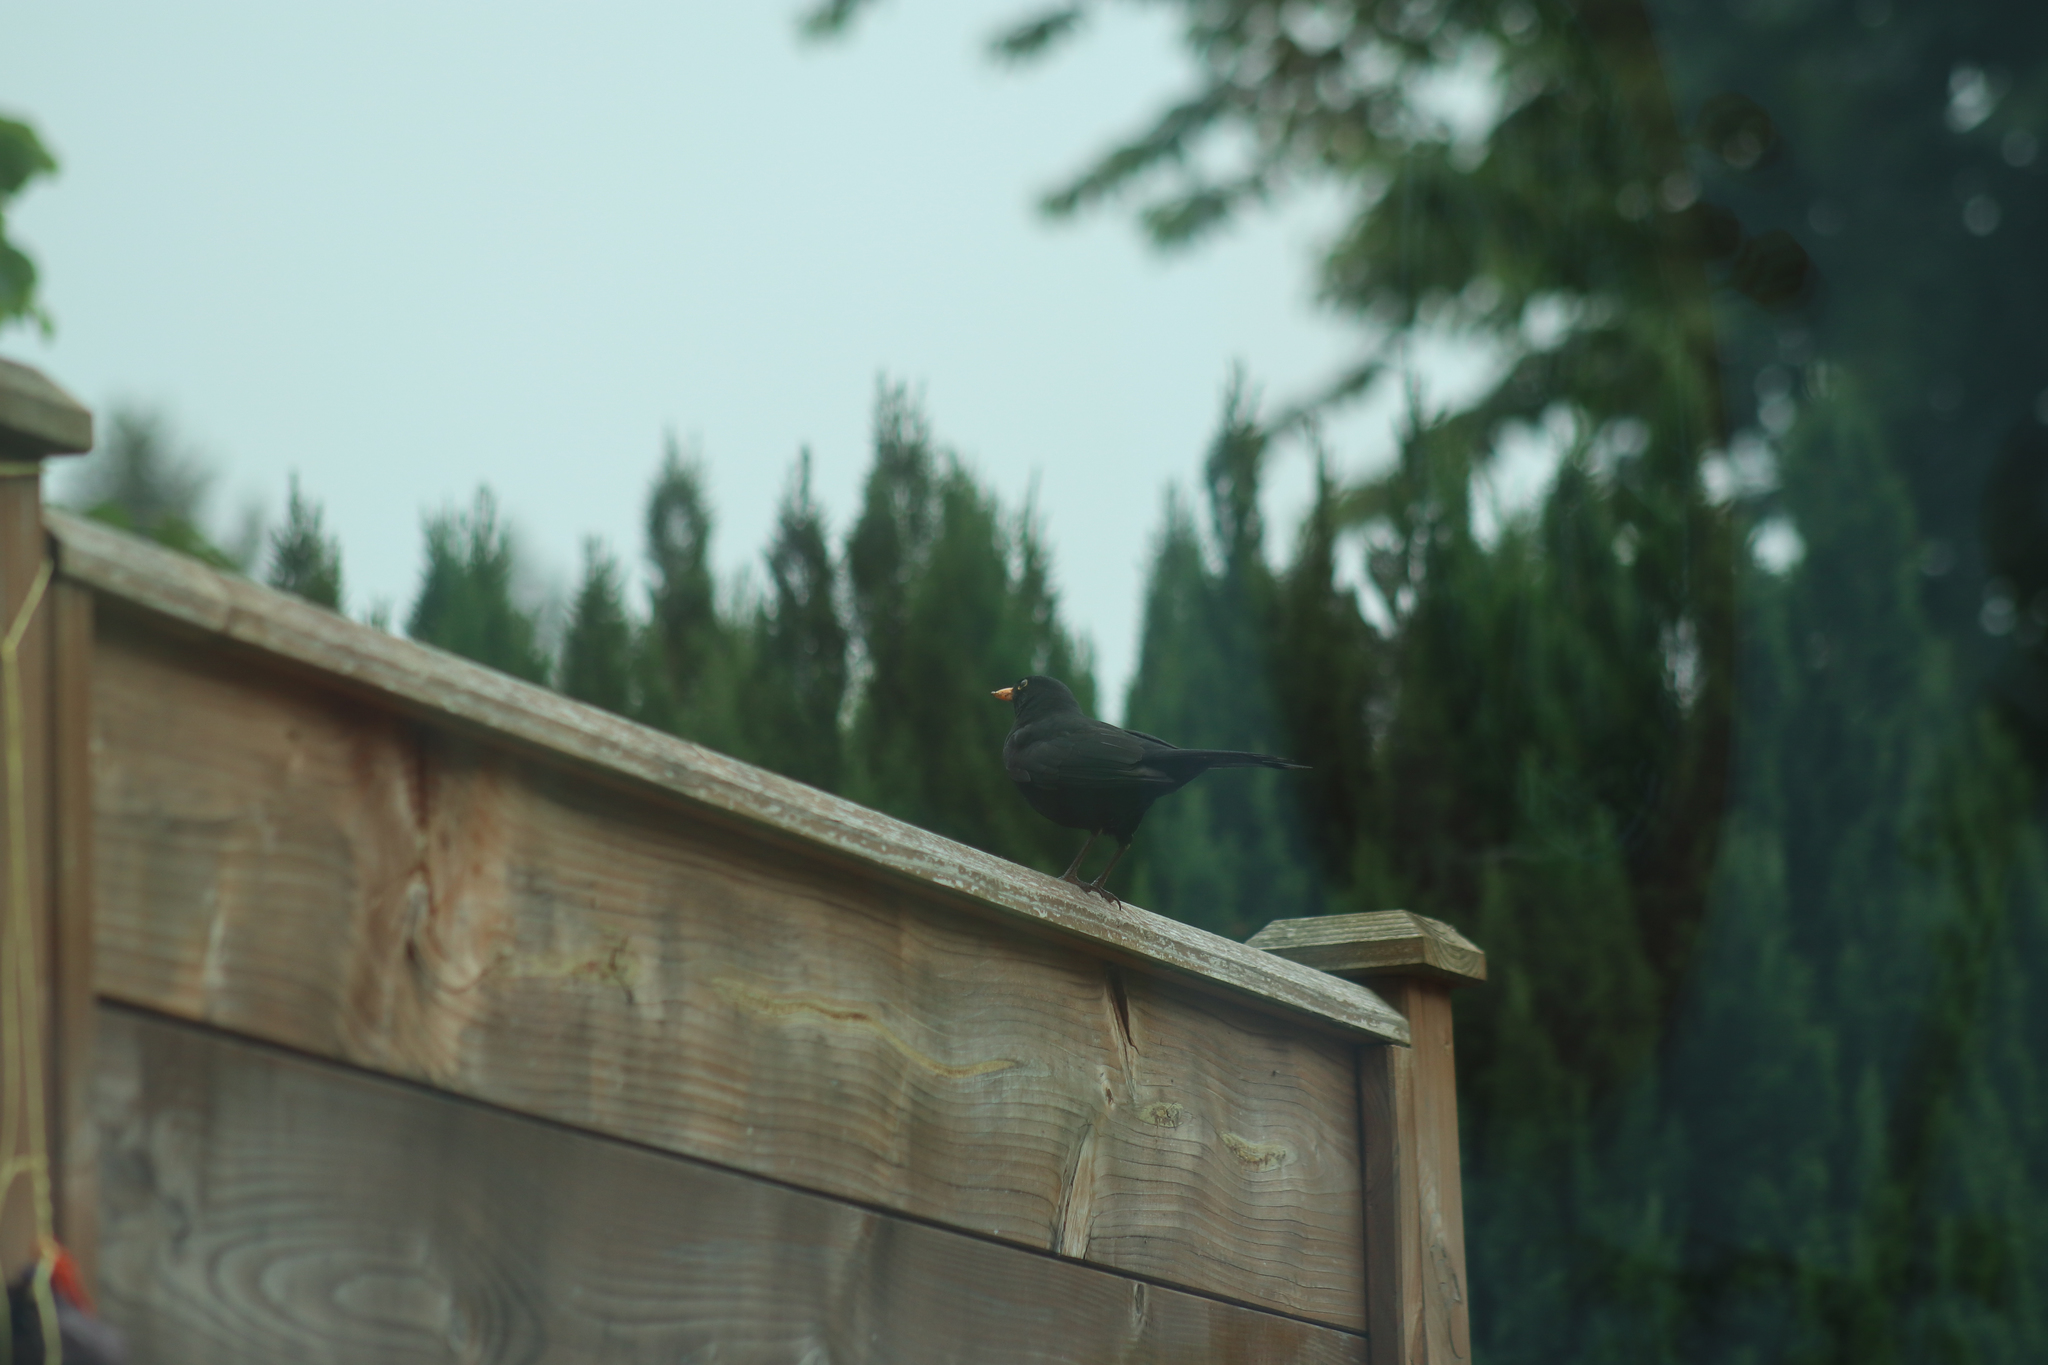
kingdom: Animalia
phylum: Chordata
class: Aves
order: Passeriformes
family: Turdidae
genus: Turdus
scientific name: Turdus merula
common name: Common blackbird
